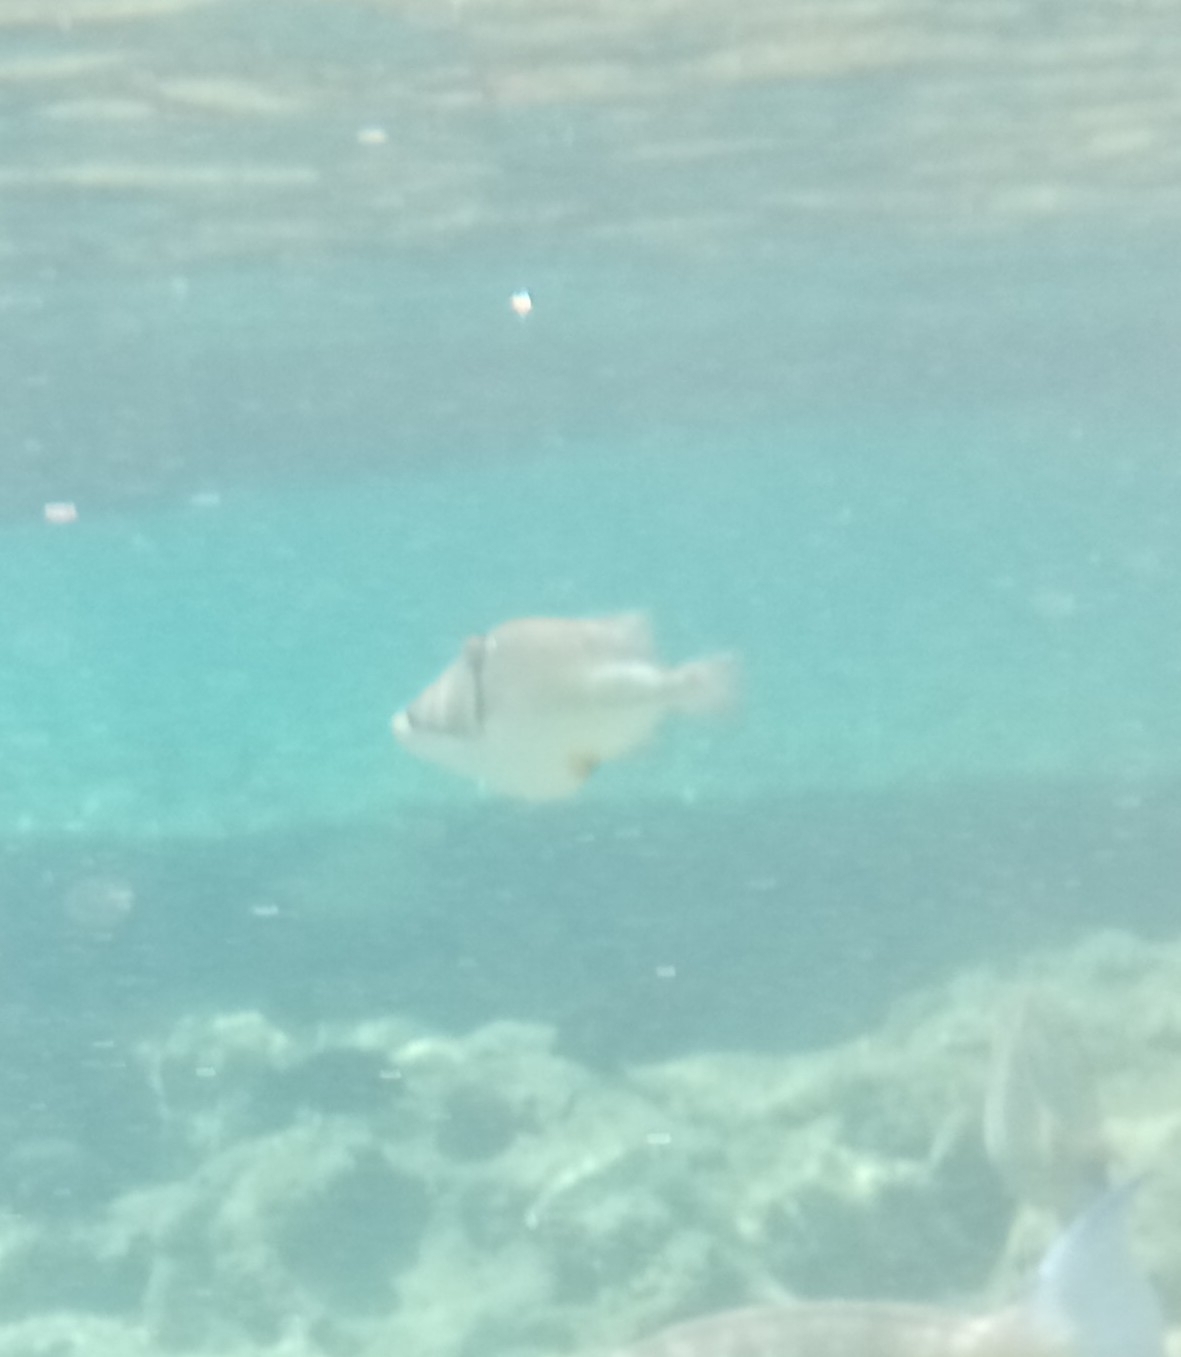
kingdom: Animalia
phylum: Chordata
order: Tetraodontiformes
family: Balistidae
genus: Rhinecanthus
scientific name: Rhinecanthus assasi
